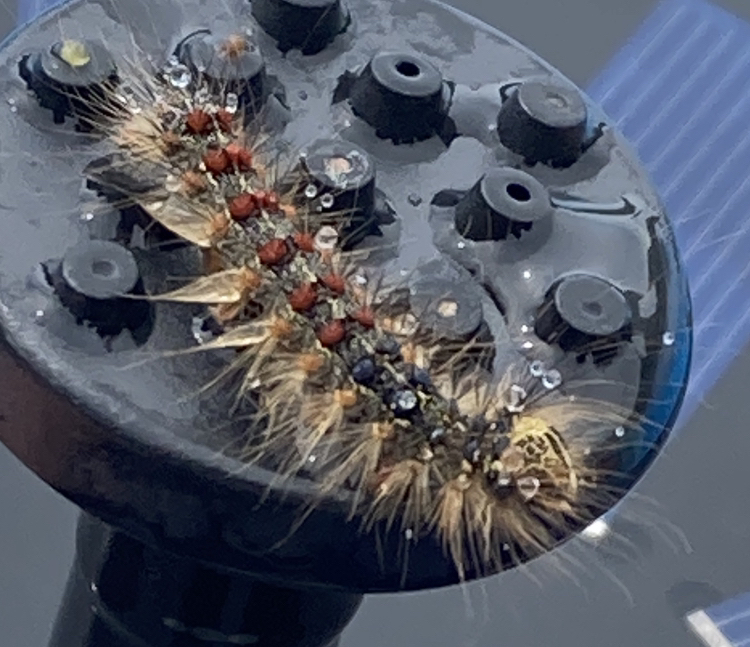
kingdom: Animalia
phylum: Arthropoda
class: Insecta
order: Lepidoptera
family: Erebidae
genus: Lymantria
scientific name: Lymantria dispar
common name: Gypsy moth
